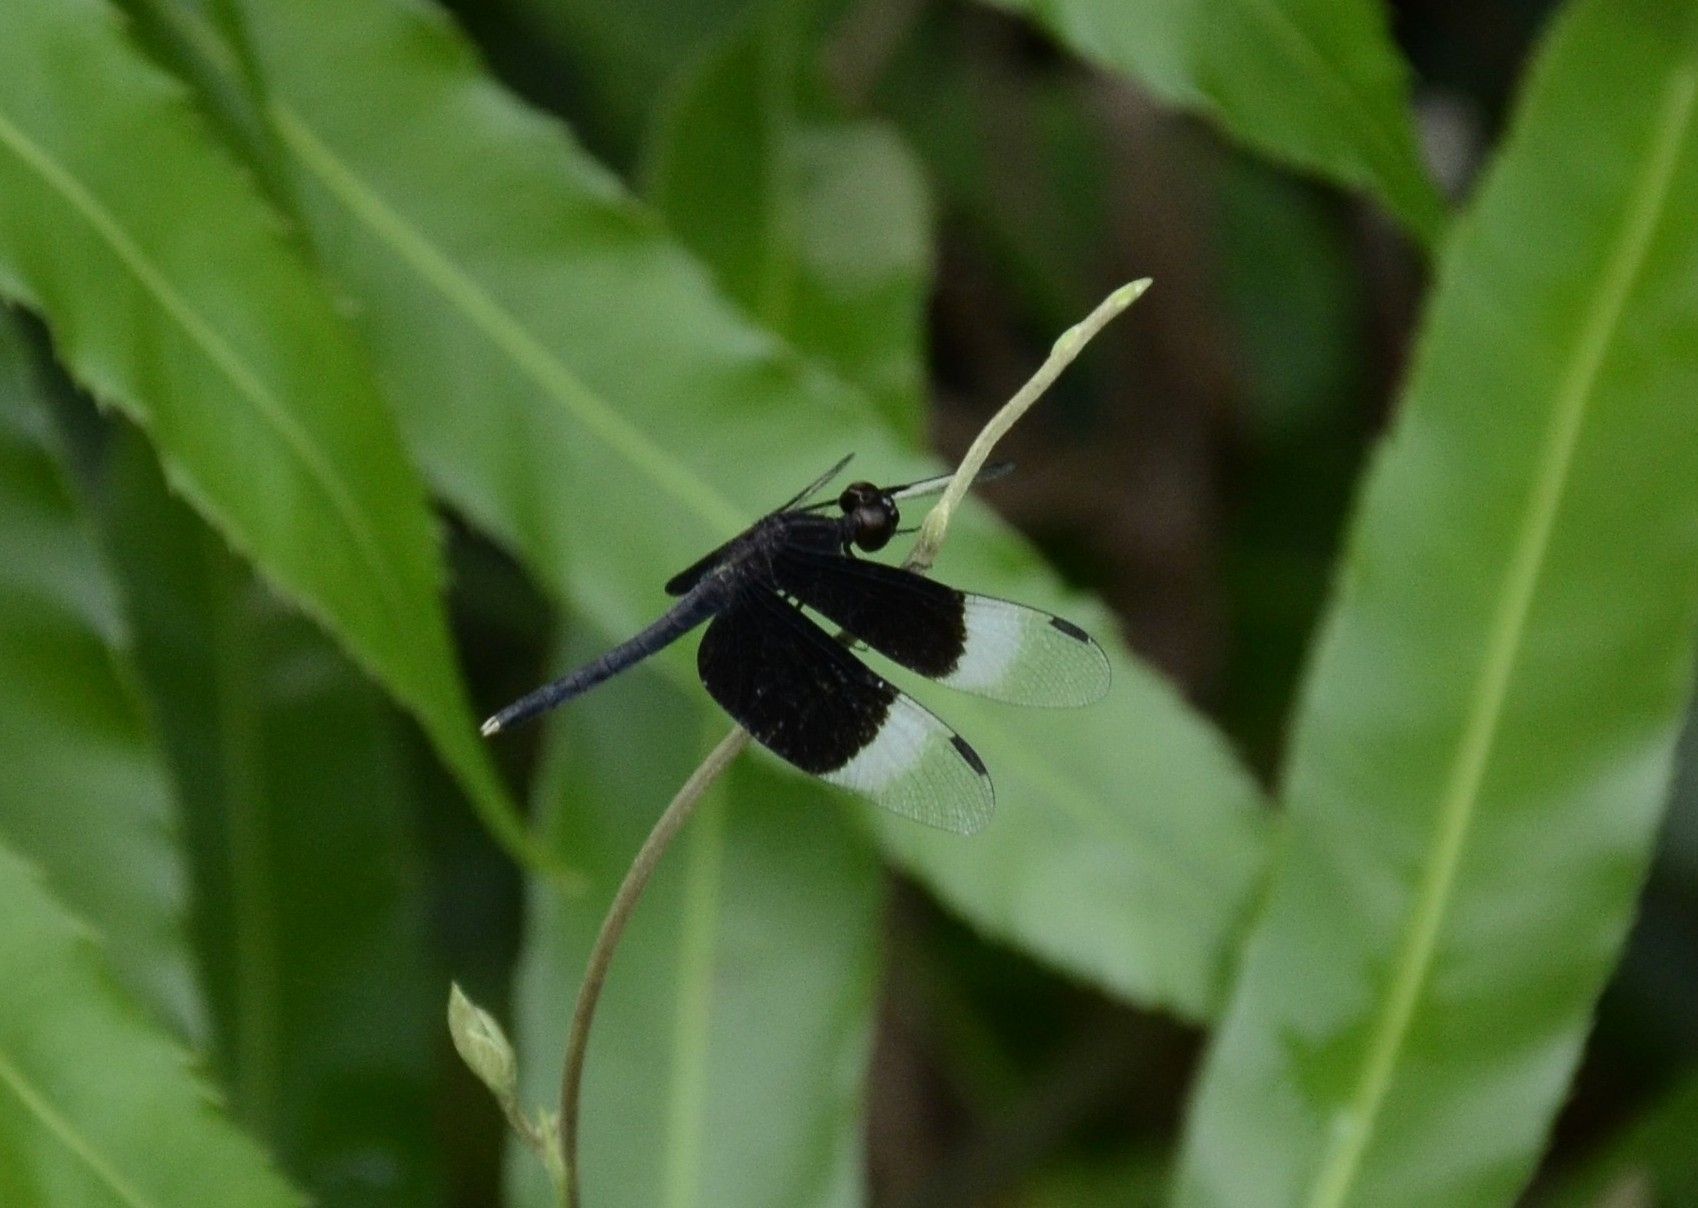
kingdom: Animalia
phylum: Arthropoda
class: Insecta
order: Odonata
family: Libellulidae
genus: Neurothemis
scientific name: Neurothemis tullia
